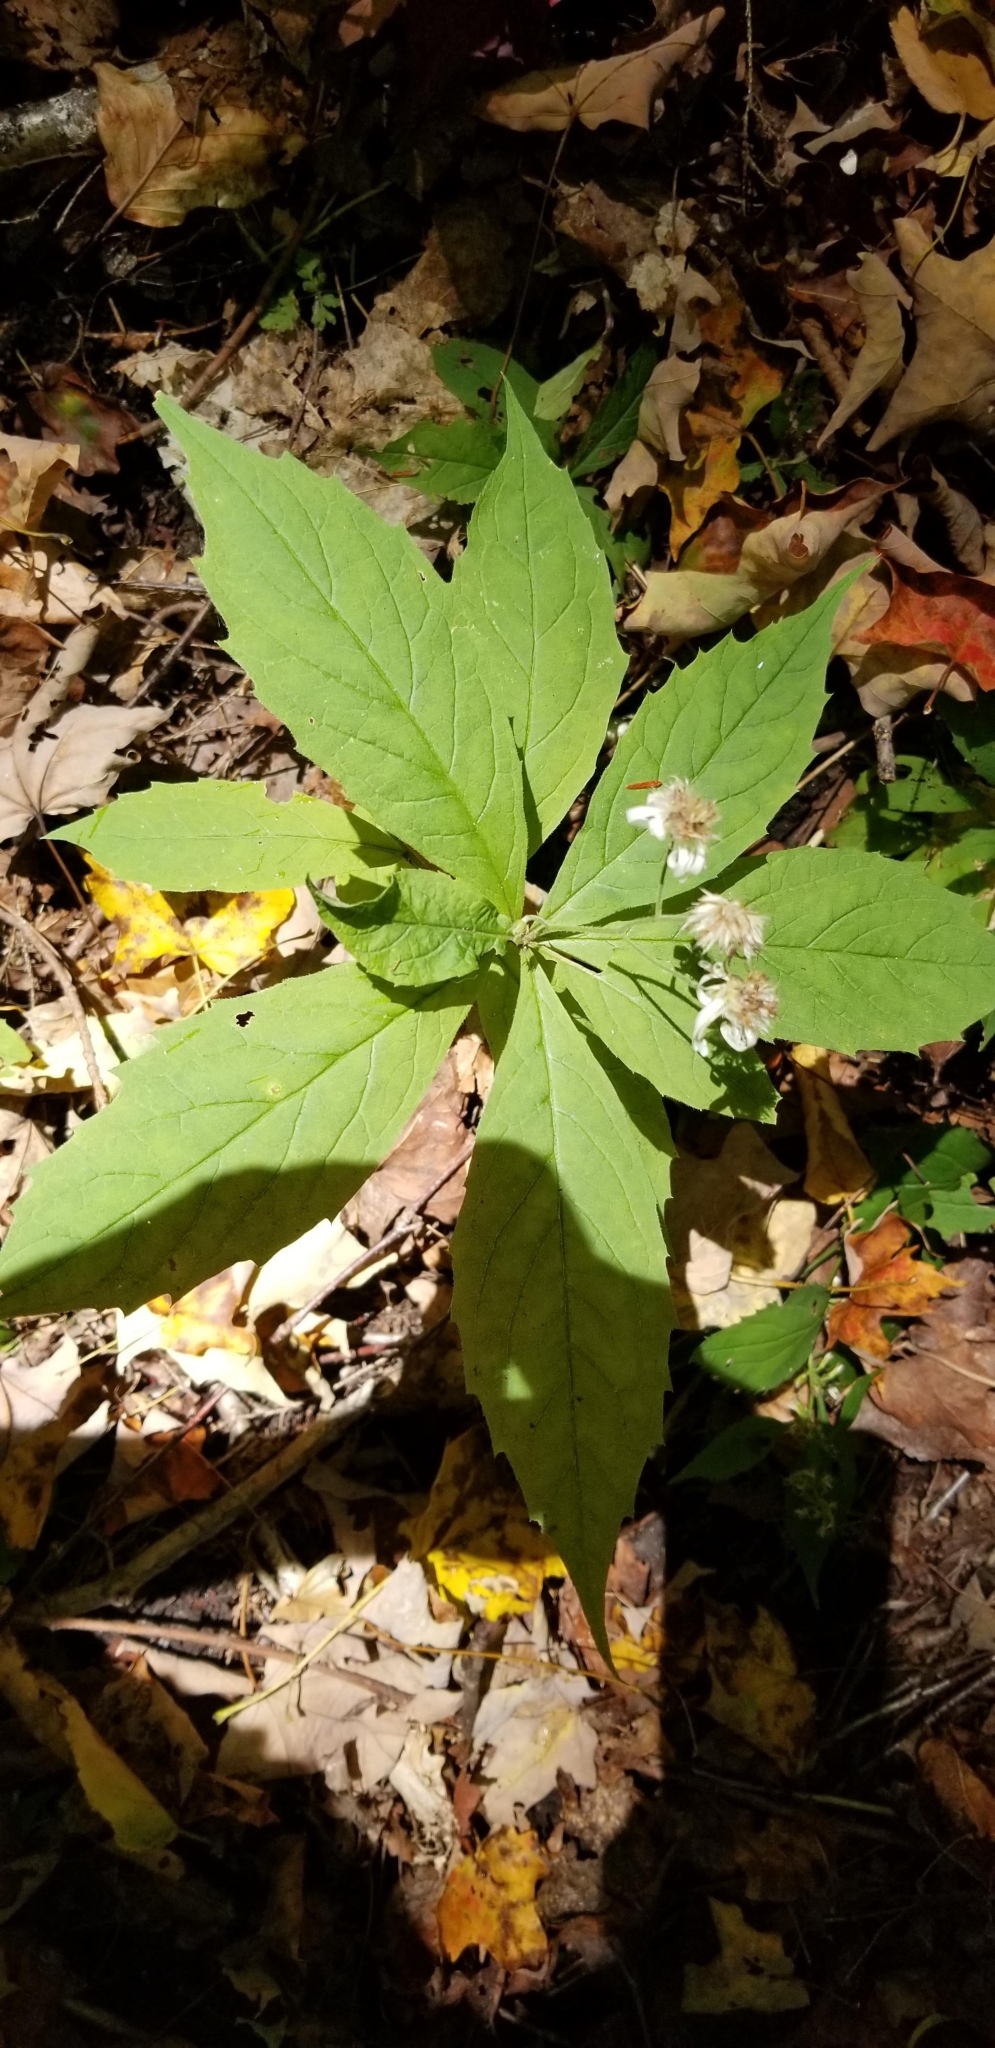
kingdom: Plantae
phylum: Tracheophyta
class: Magnoliopsida
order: Asterales
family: Asteraceae
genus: Oclemena
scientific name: Oclemena acuminata
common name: Mountain aster
